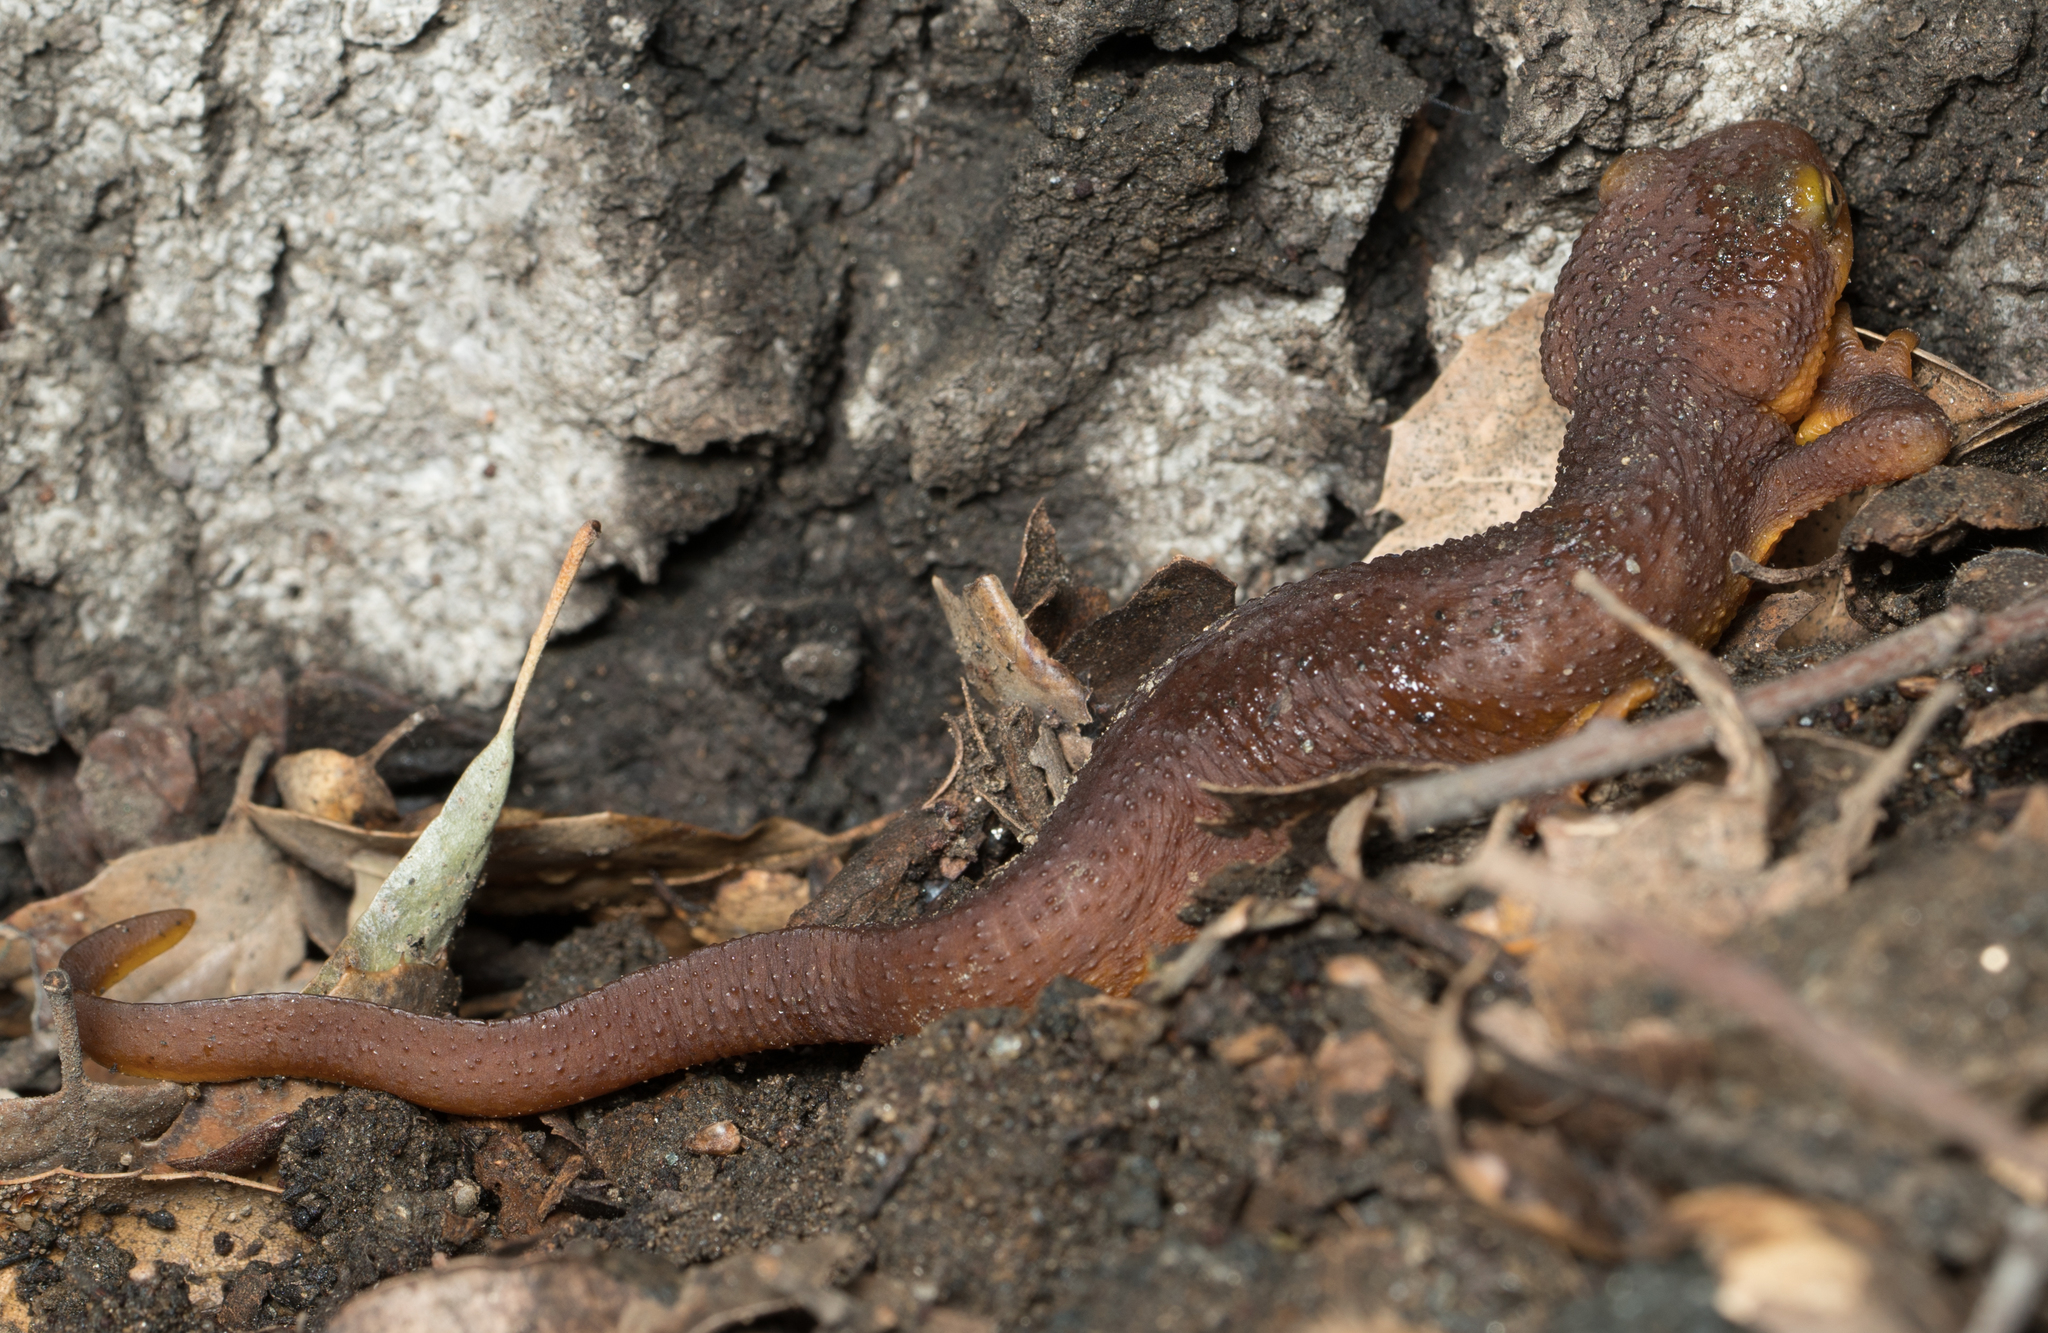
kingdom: Animalia
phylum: Chordata
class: Amphibia
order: Caudata
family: Salamandridae
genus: Taricha
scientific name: Taricha torosa
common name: California newt
